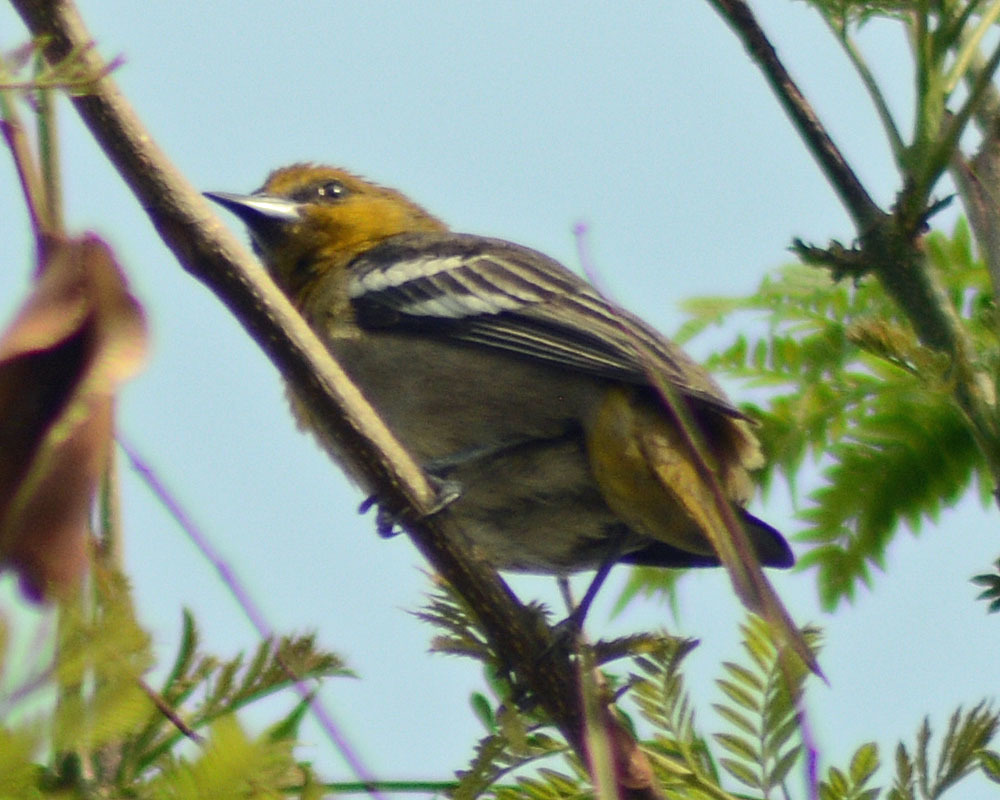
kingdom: Animalia
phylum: Chordata
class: Aves
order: Passeriformes
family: Icteridae
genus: Icterus
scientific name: Icterus bullockii
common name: Bullock's oriole
